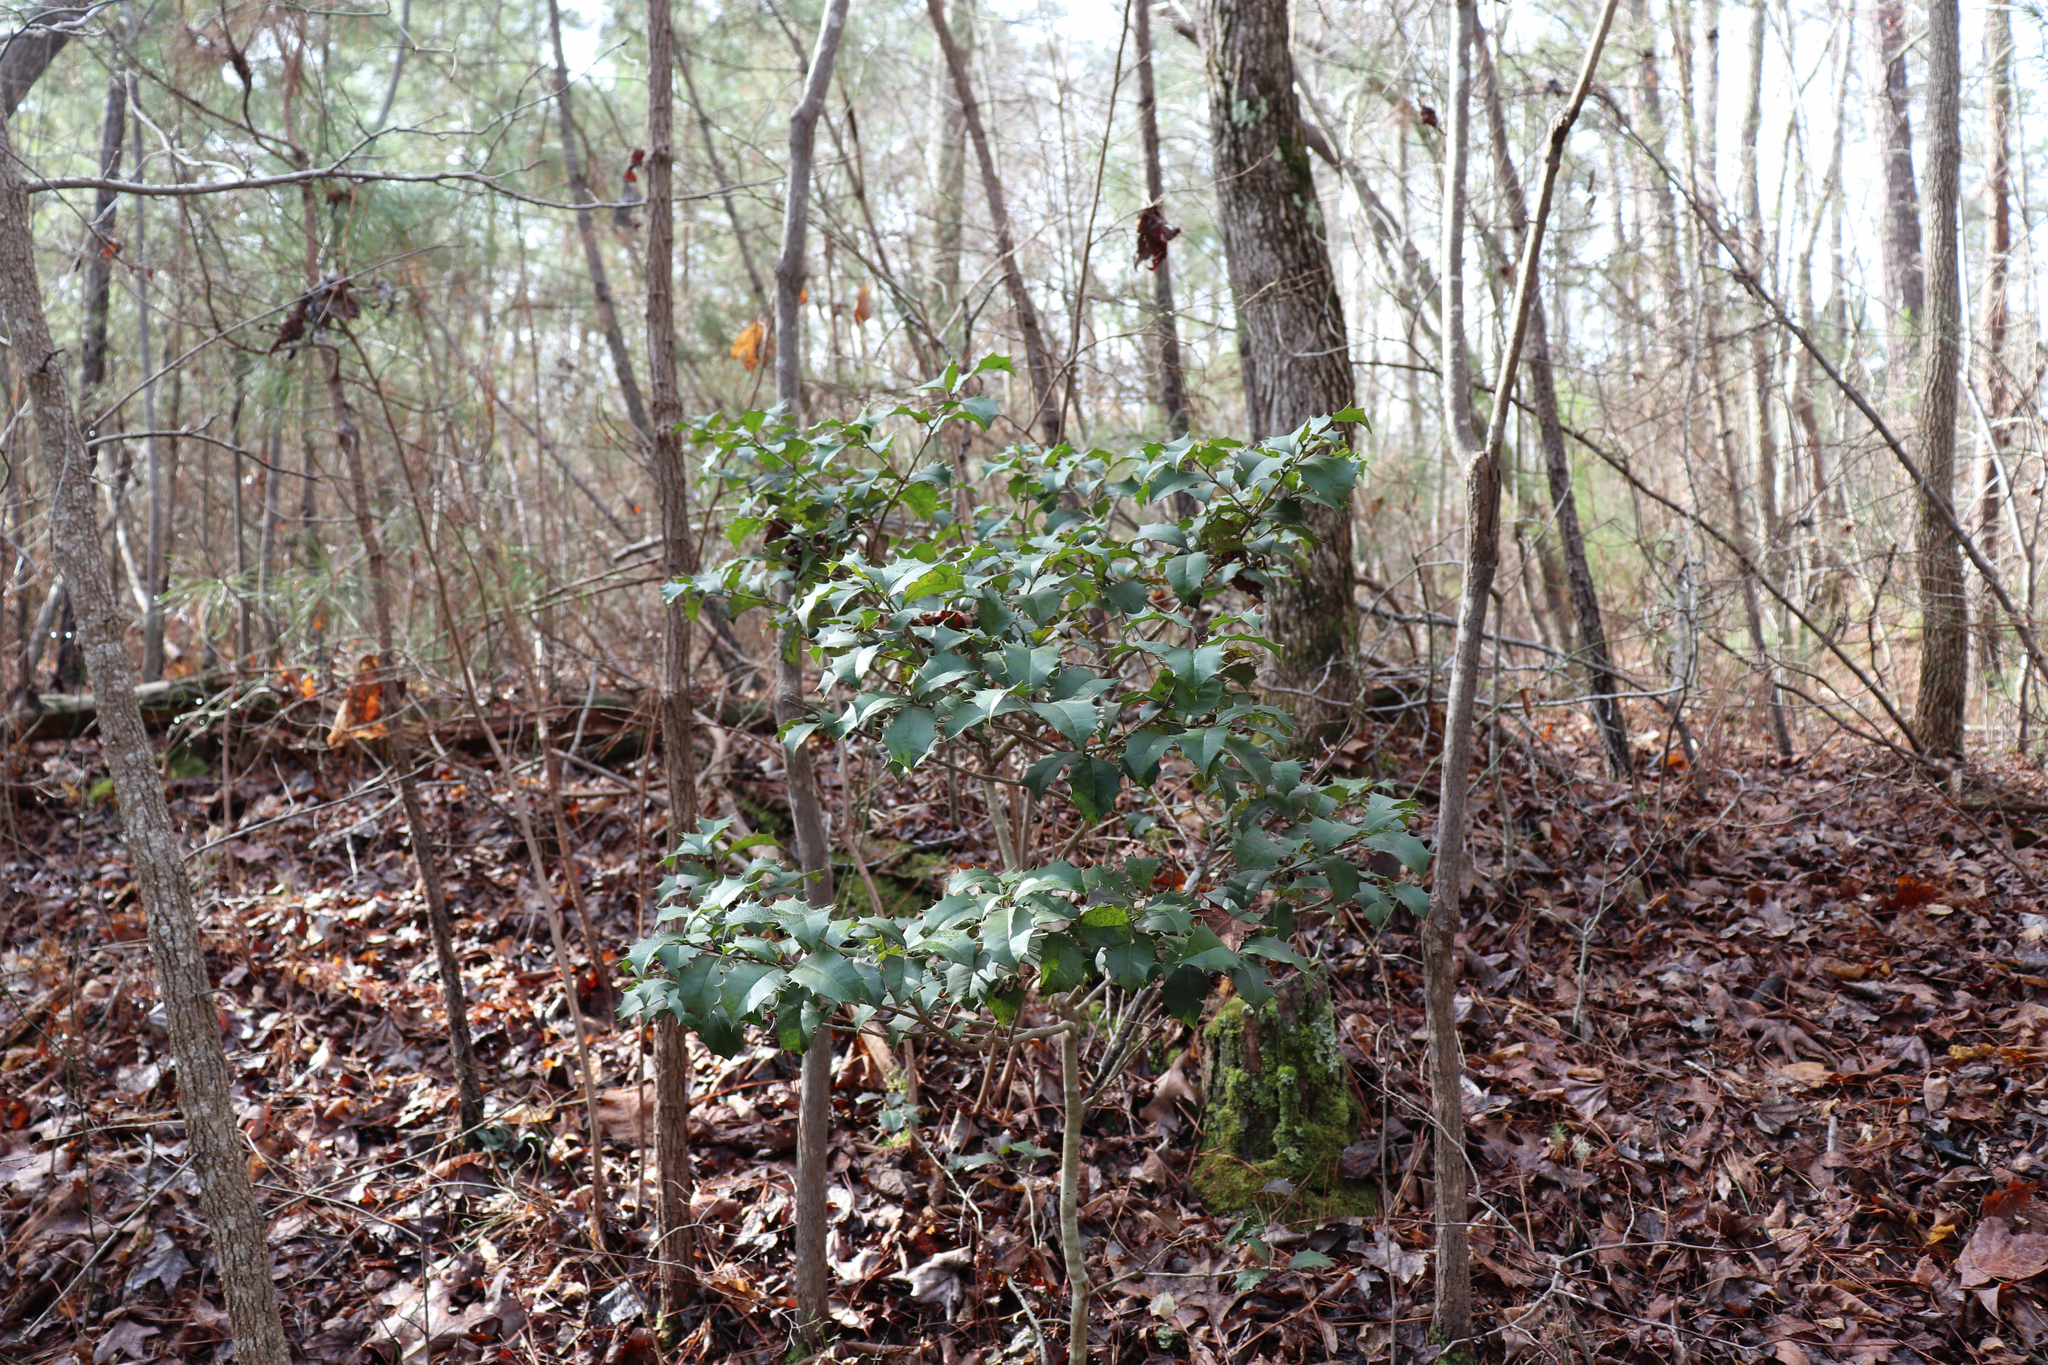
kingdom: Plantae
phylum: Tracheophyta
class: Magnoliopsida
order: Aquifoliales
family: Aquifoliaceae
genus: Ilex
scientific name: Ilex opaca
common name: American holly
